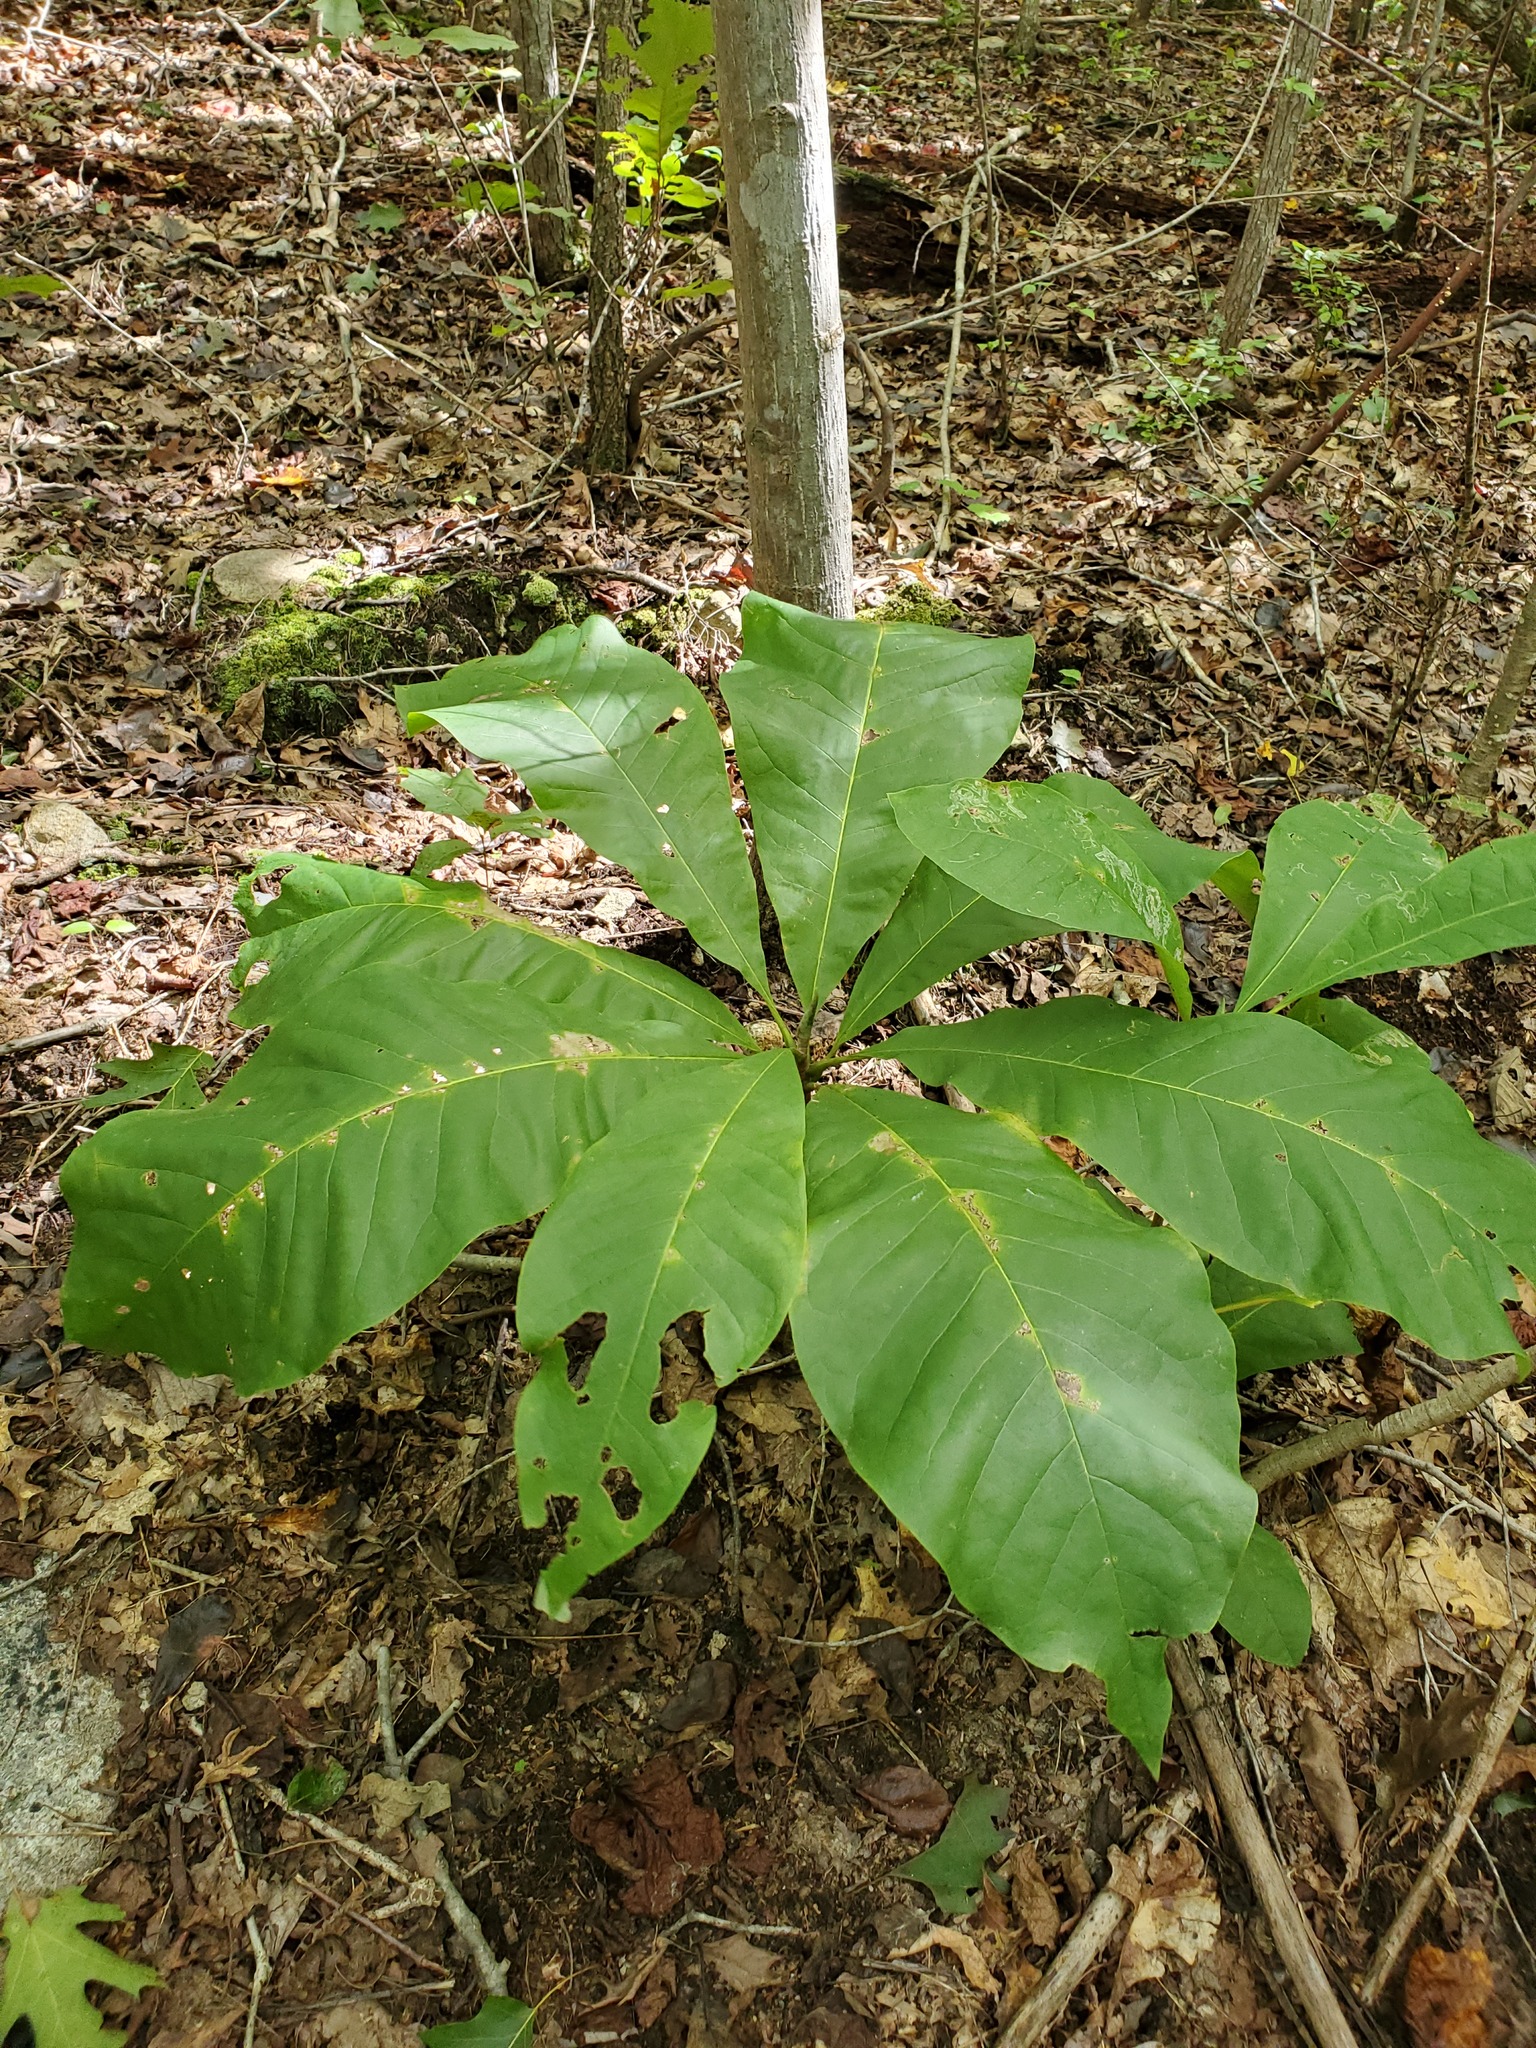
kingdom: Plantae
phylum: Tracheophyta
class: Magnoliopsida
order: Magnoliales
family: Magnoliaceae
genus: Magnolia
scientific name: Magnolia tripetala
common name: Umbrella magnolia
